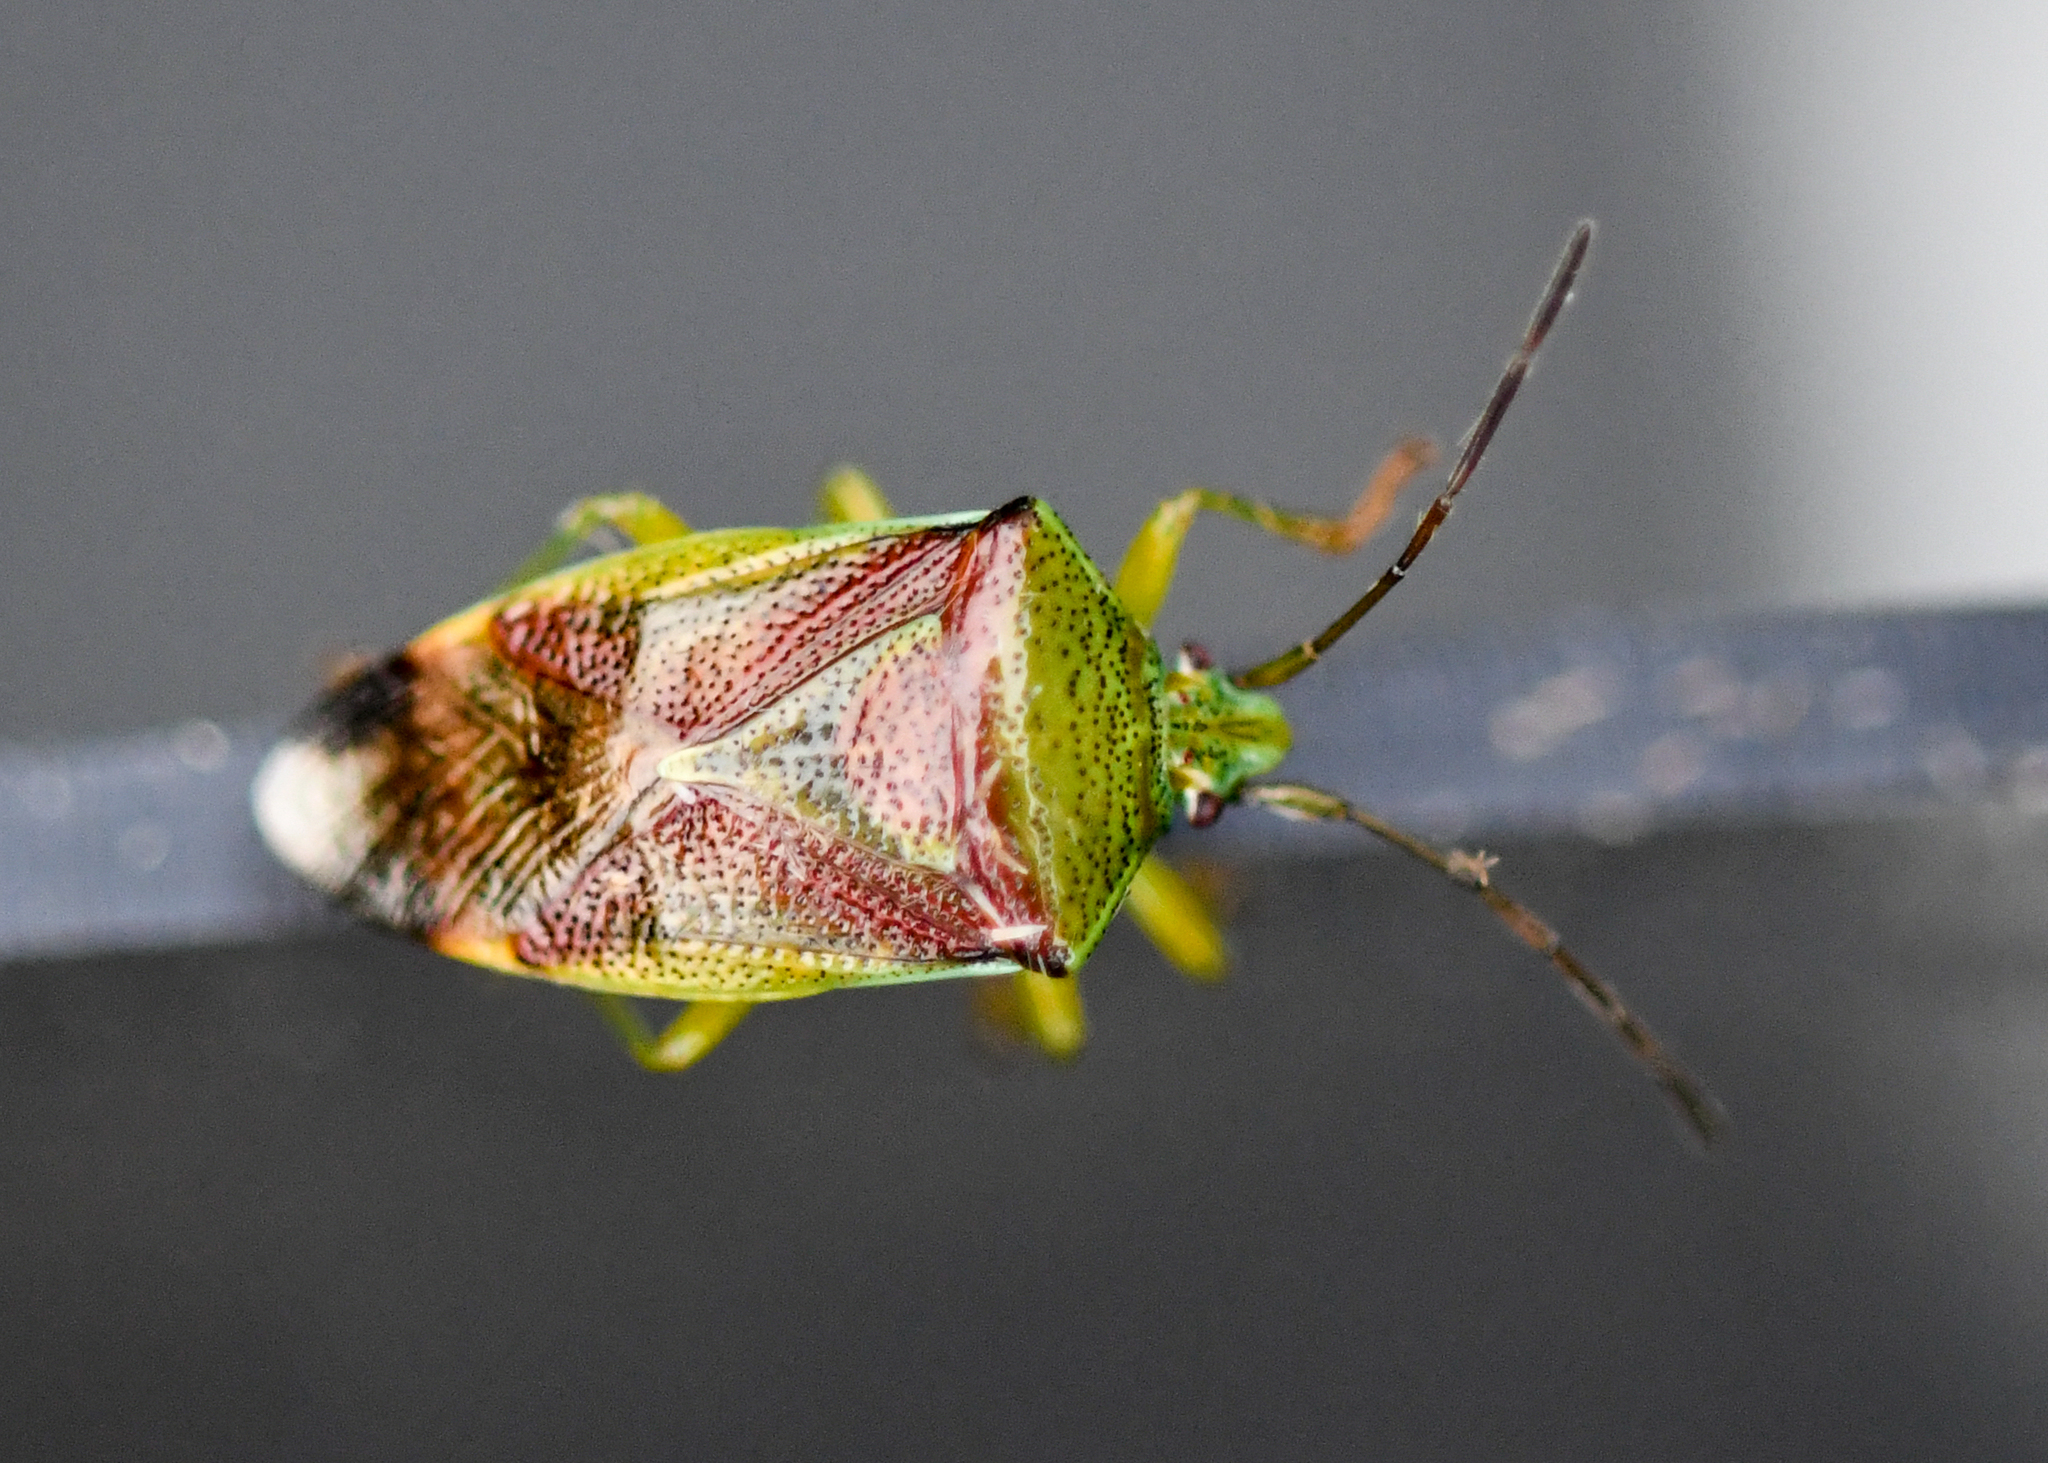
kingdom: Animalia
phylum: Arthropoda
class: Insecta
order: Hemiptera
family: Acanthosomatidae
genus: Elasmostethus
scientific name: Elasmostethus interstinctus
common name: Birch shieldbug
